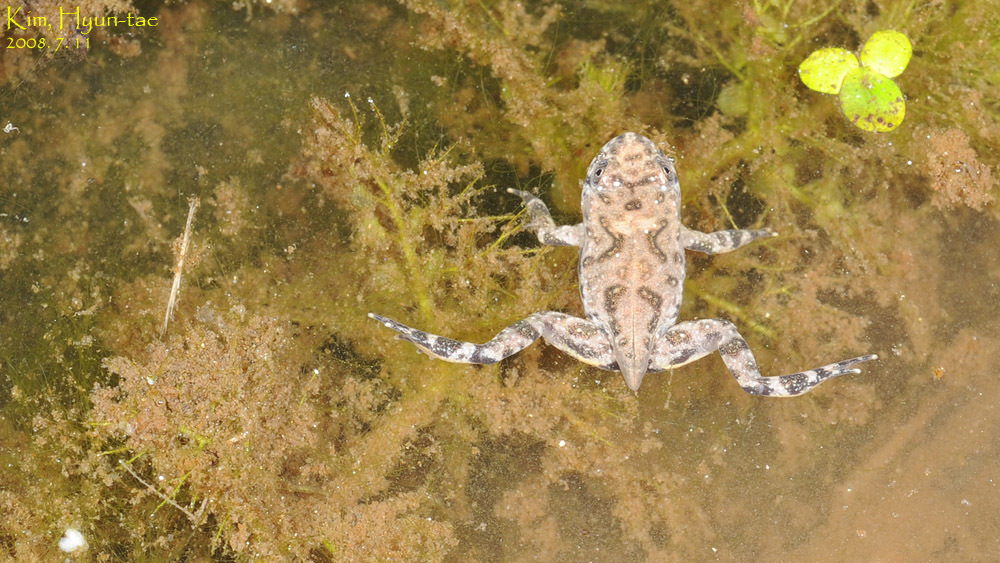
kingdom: Animalia
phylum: Chordata
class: Amphibia
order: Anura
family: Bombinatoridae
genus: Bombina
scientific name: Bombina orientalis
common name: Oriental firebelly toad
